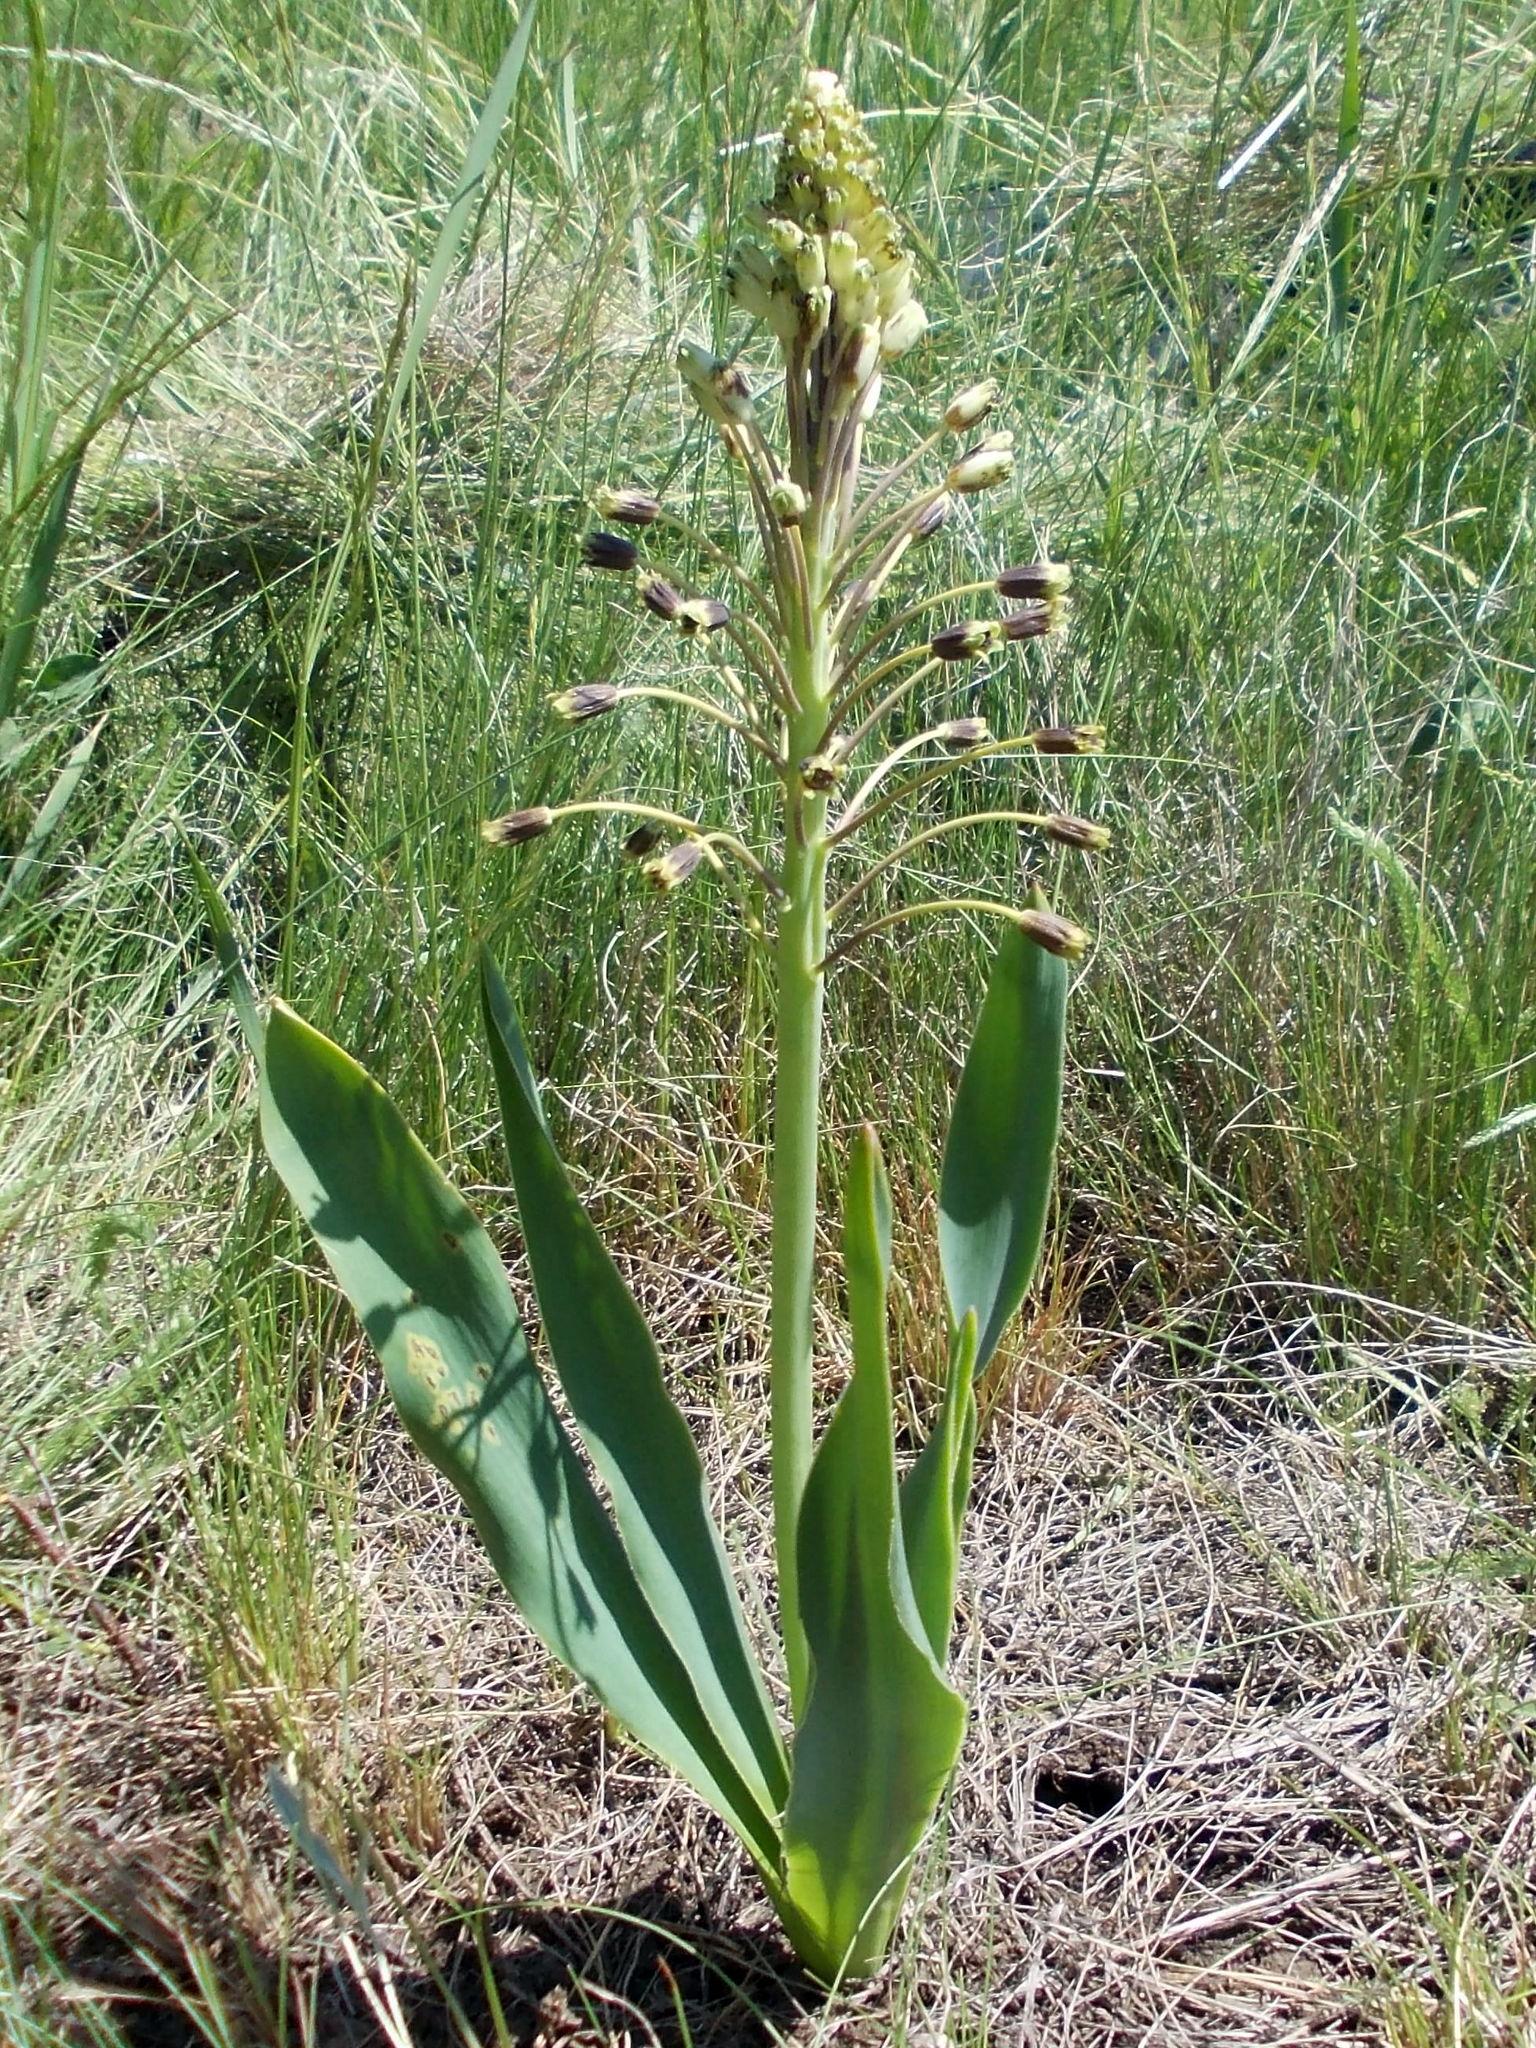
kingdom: Plantae
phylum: Tracheophyta
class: Liliopsida
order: Asparagales
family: Asparagaceae
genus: Bellevalia
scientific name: Bellevalia speciosa
